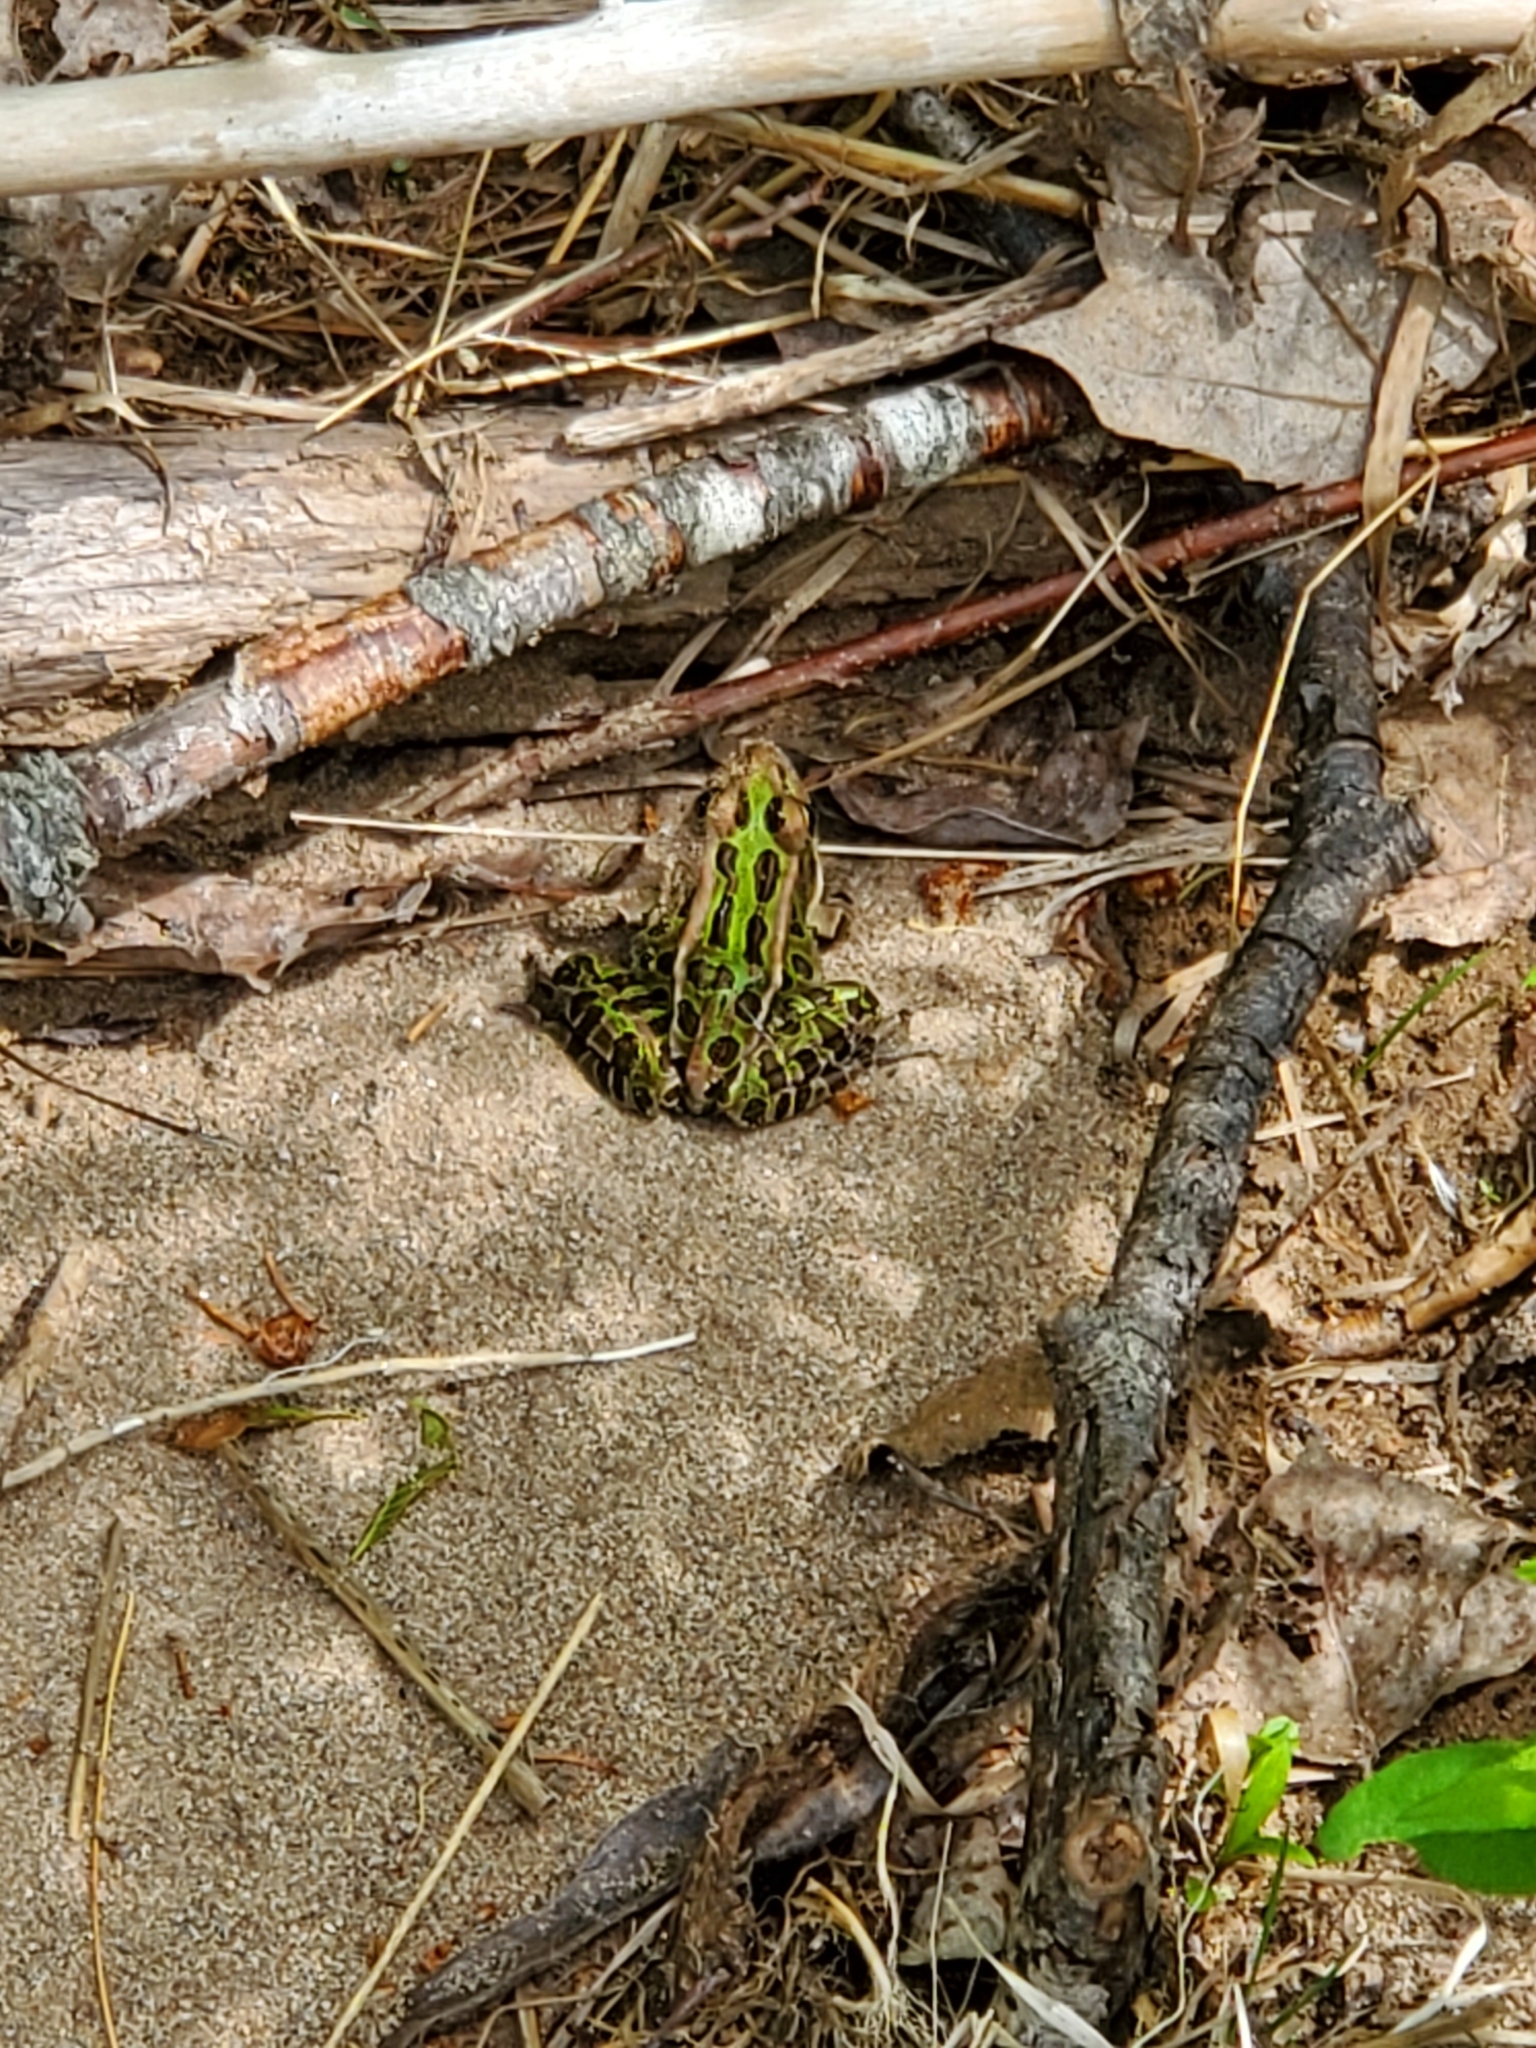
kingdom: Animalia
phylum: Chordata
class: Amphibia
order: Anura
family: Ranidae
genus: Lithobates
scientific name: Lithobates pipiens
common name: Northern leopard frog
